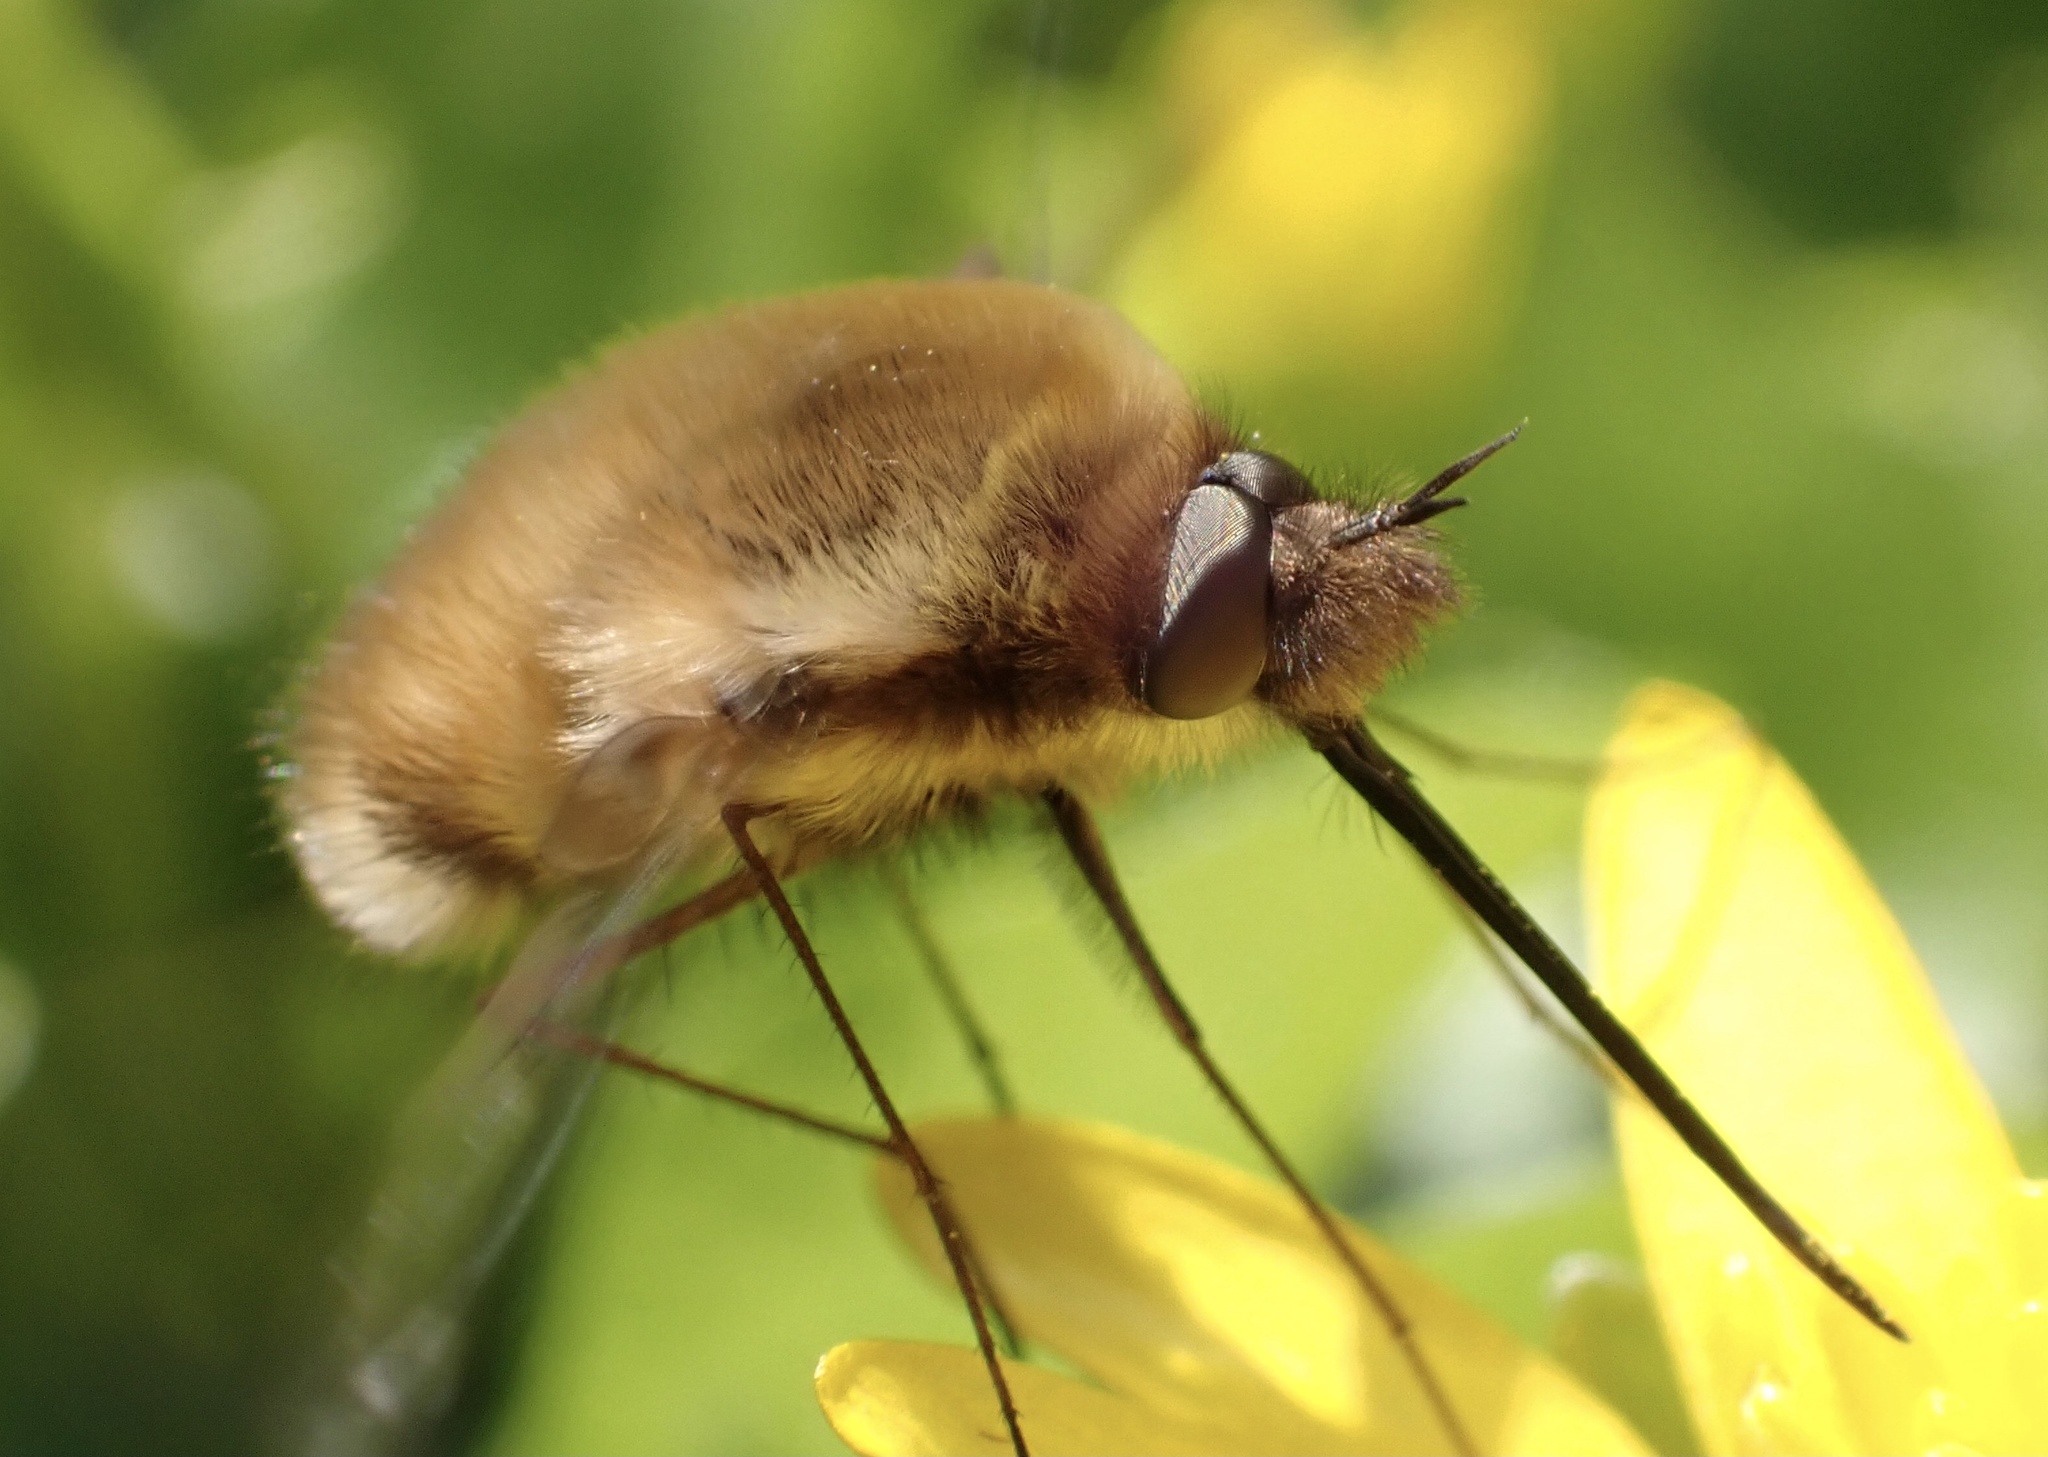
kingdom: Animalia
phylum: Arthropoda
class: Insecta
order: Diptera
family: Bombyliidae
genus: Bombylius
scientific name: Bombylius major
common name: Bee fly
